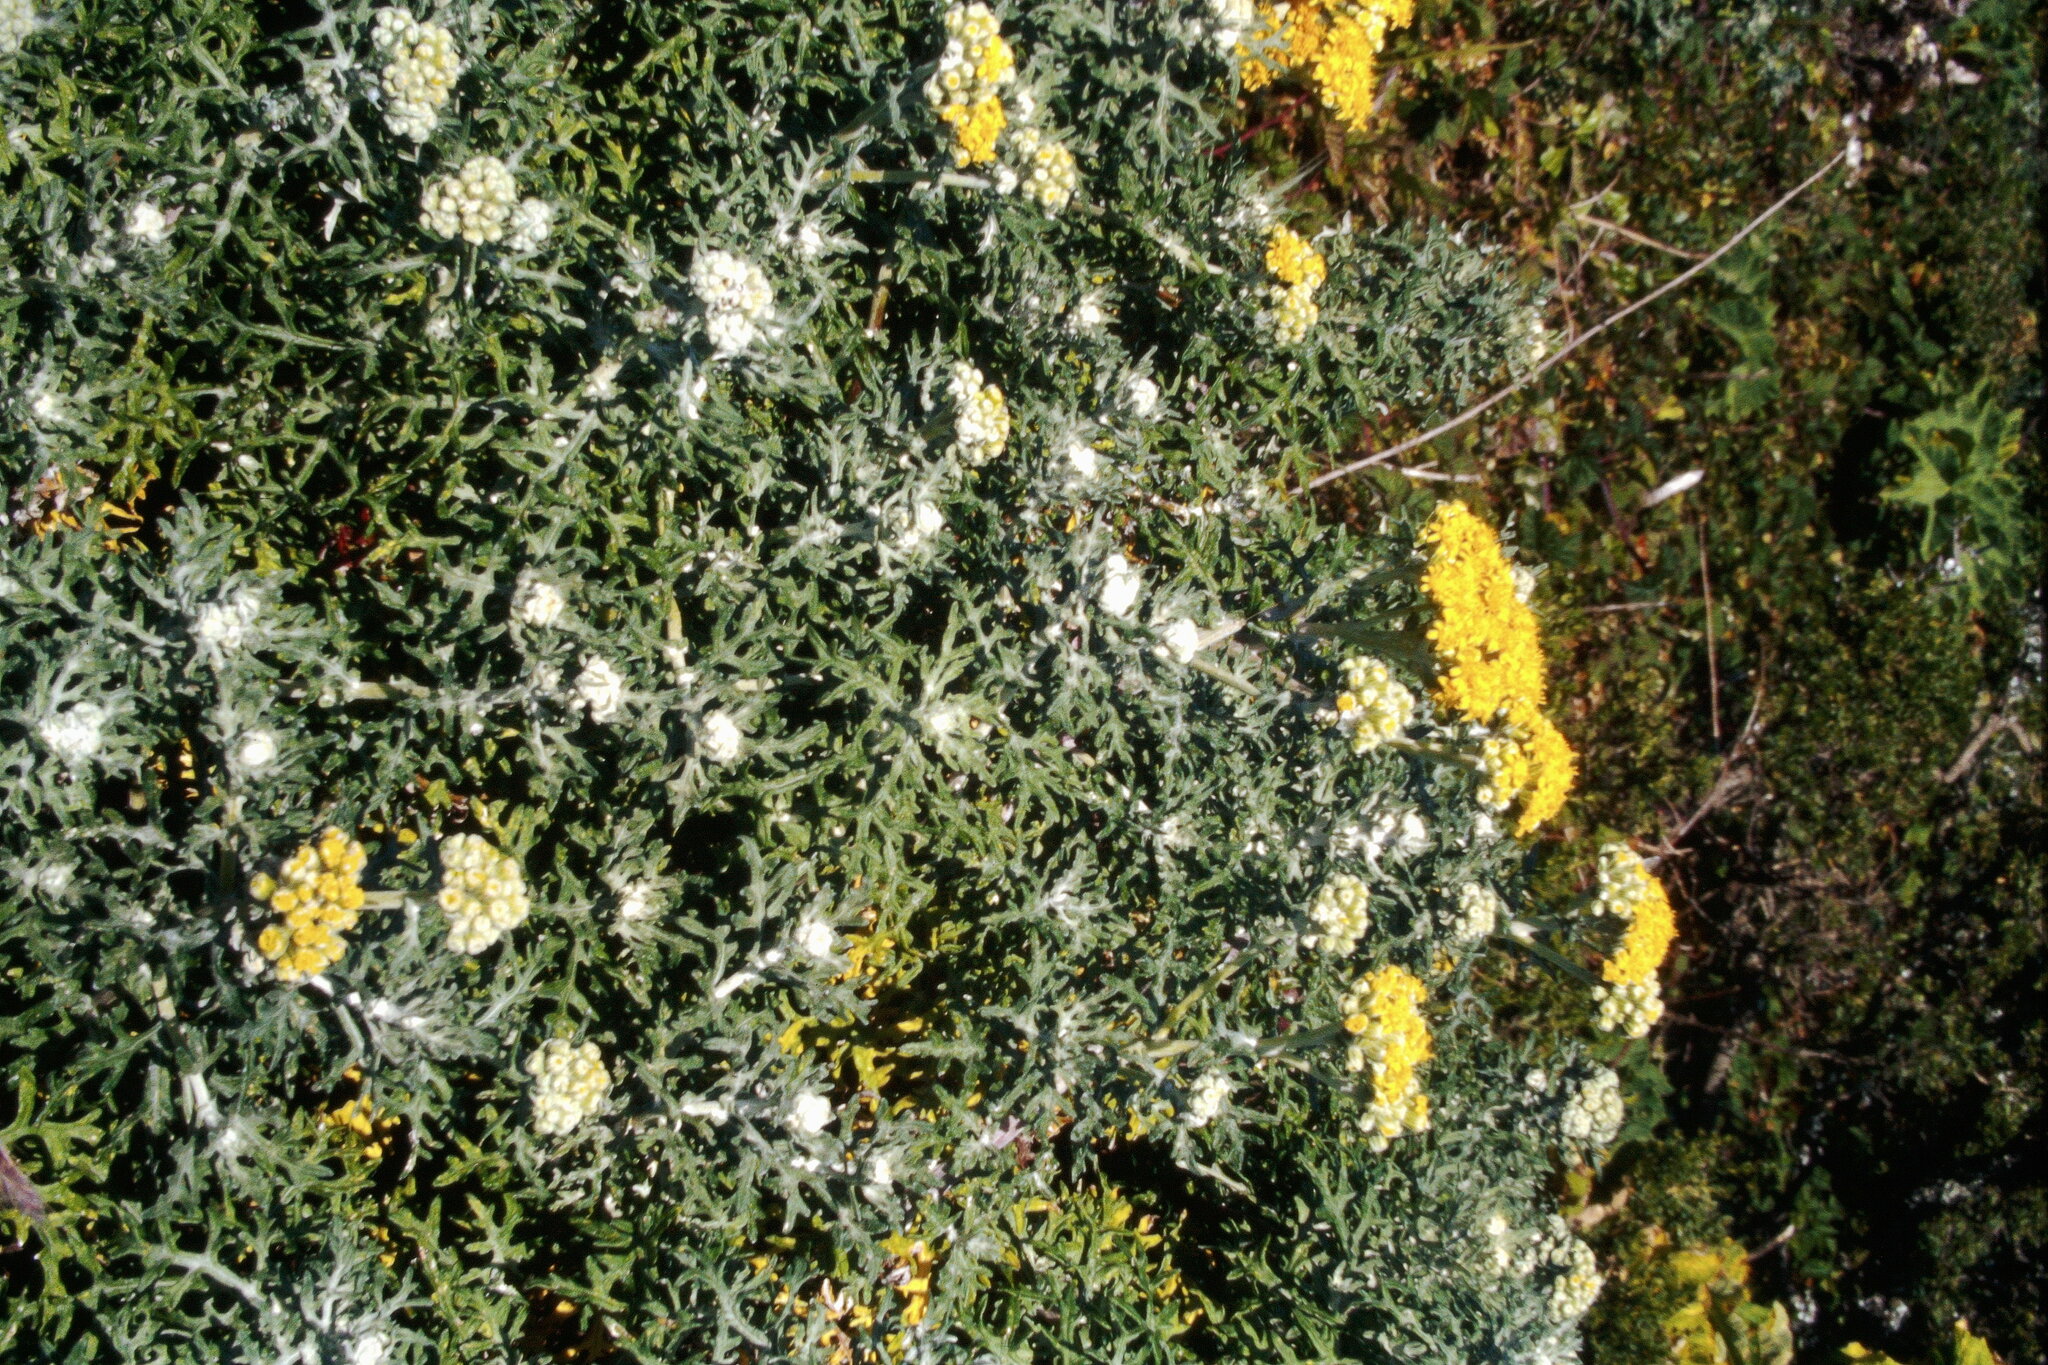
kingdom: Plantae
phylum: Tracheophyta
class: Magnoliopsida
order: Asterales
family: Asteraceae
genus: Eriophyllum
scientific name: Eriophyllum staechadifolium
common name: Lizardtail
